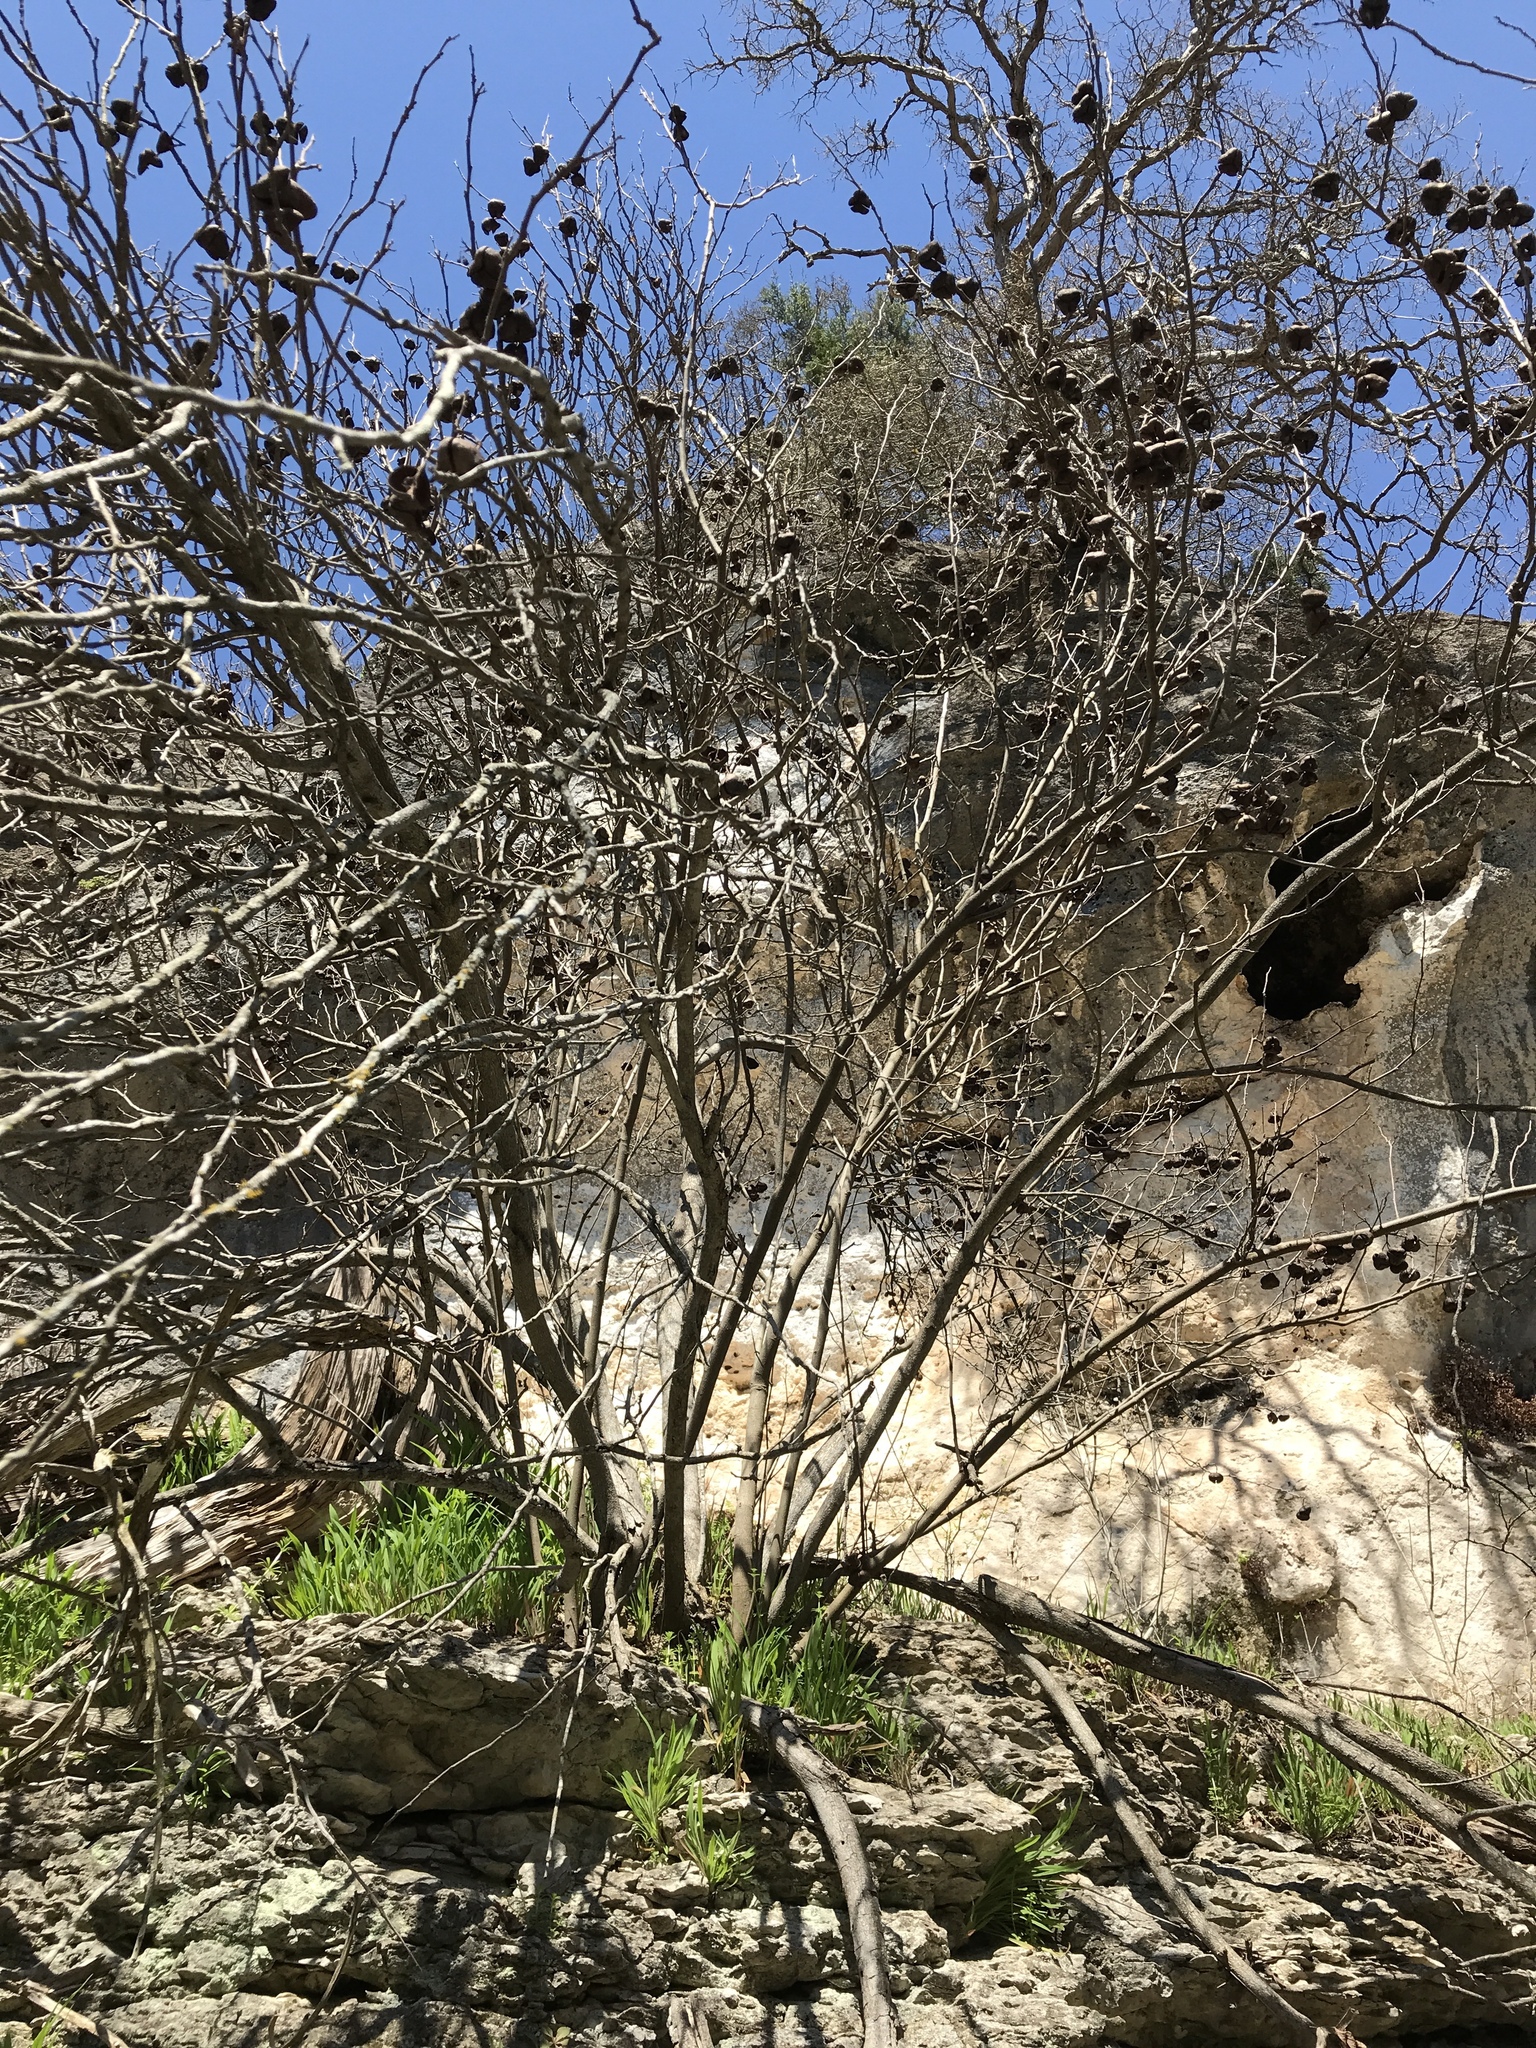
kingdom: Plantae
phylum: Tracheophyta
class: Magnoliopsida
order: Sapindales
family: Sapindaceae
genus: Ungnadia
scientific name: Ungnadia speciosa
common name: Texas-buckeye
